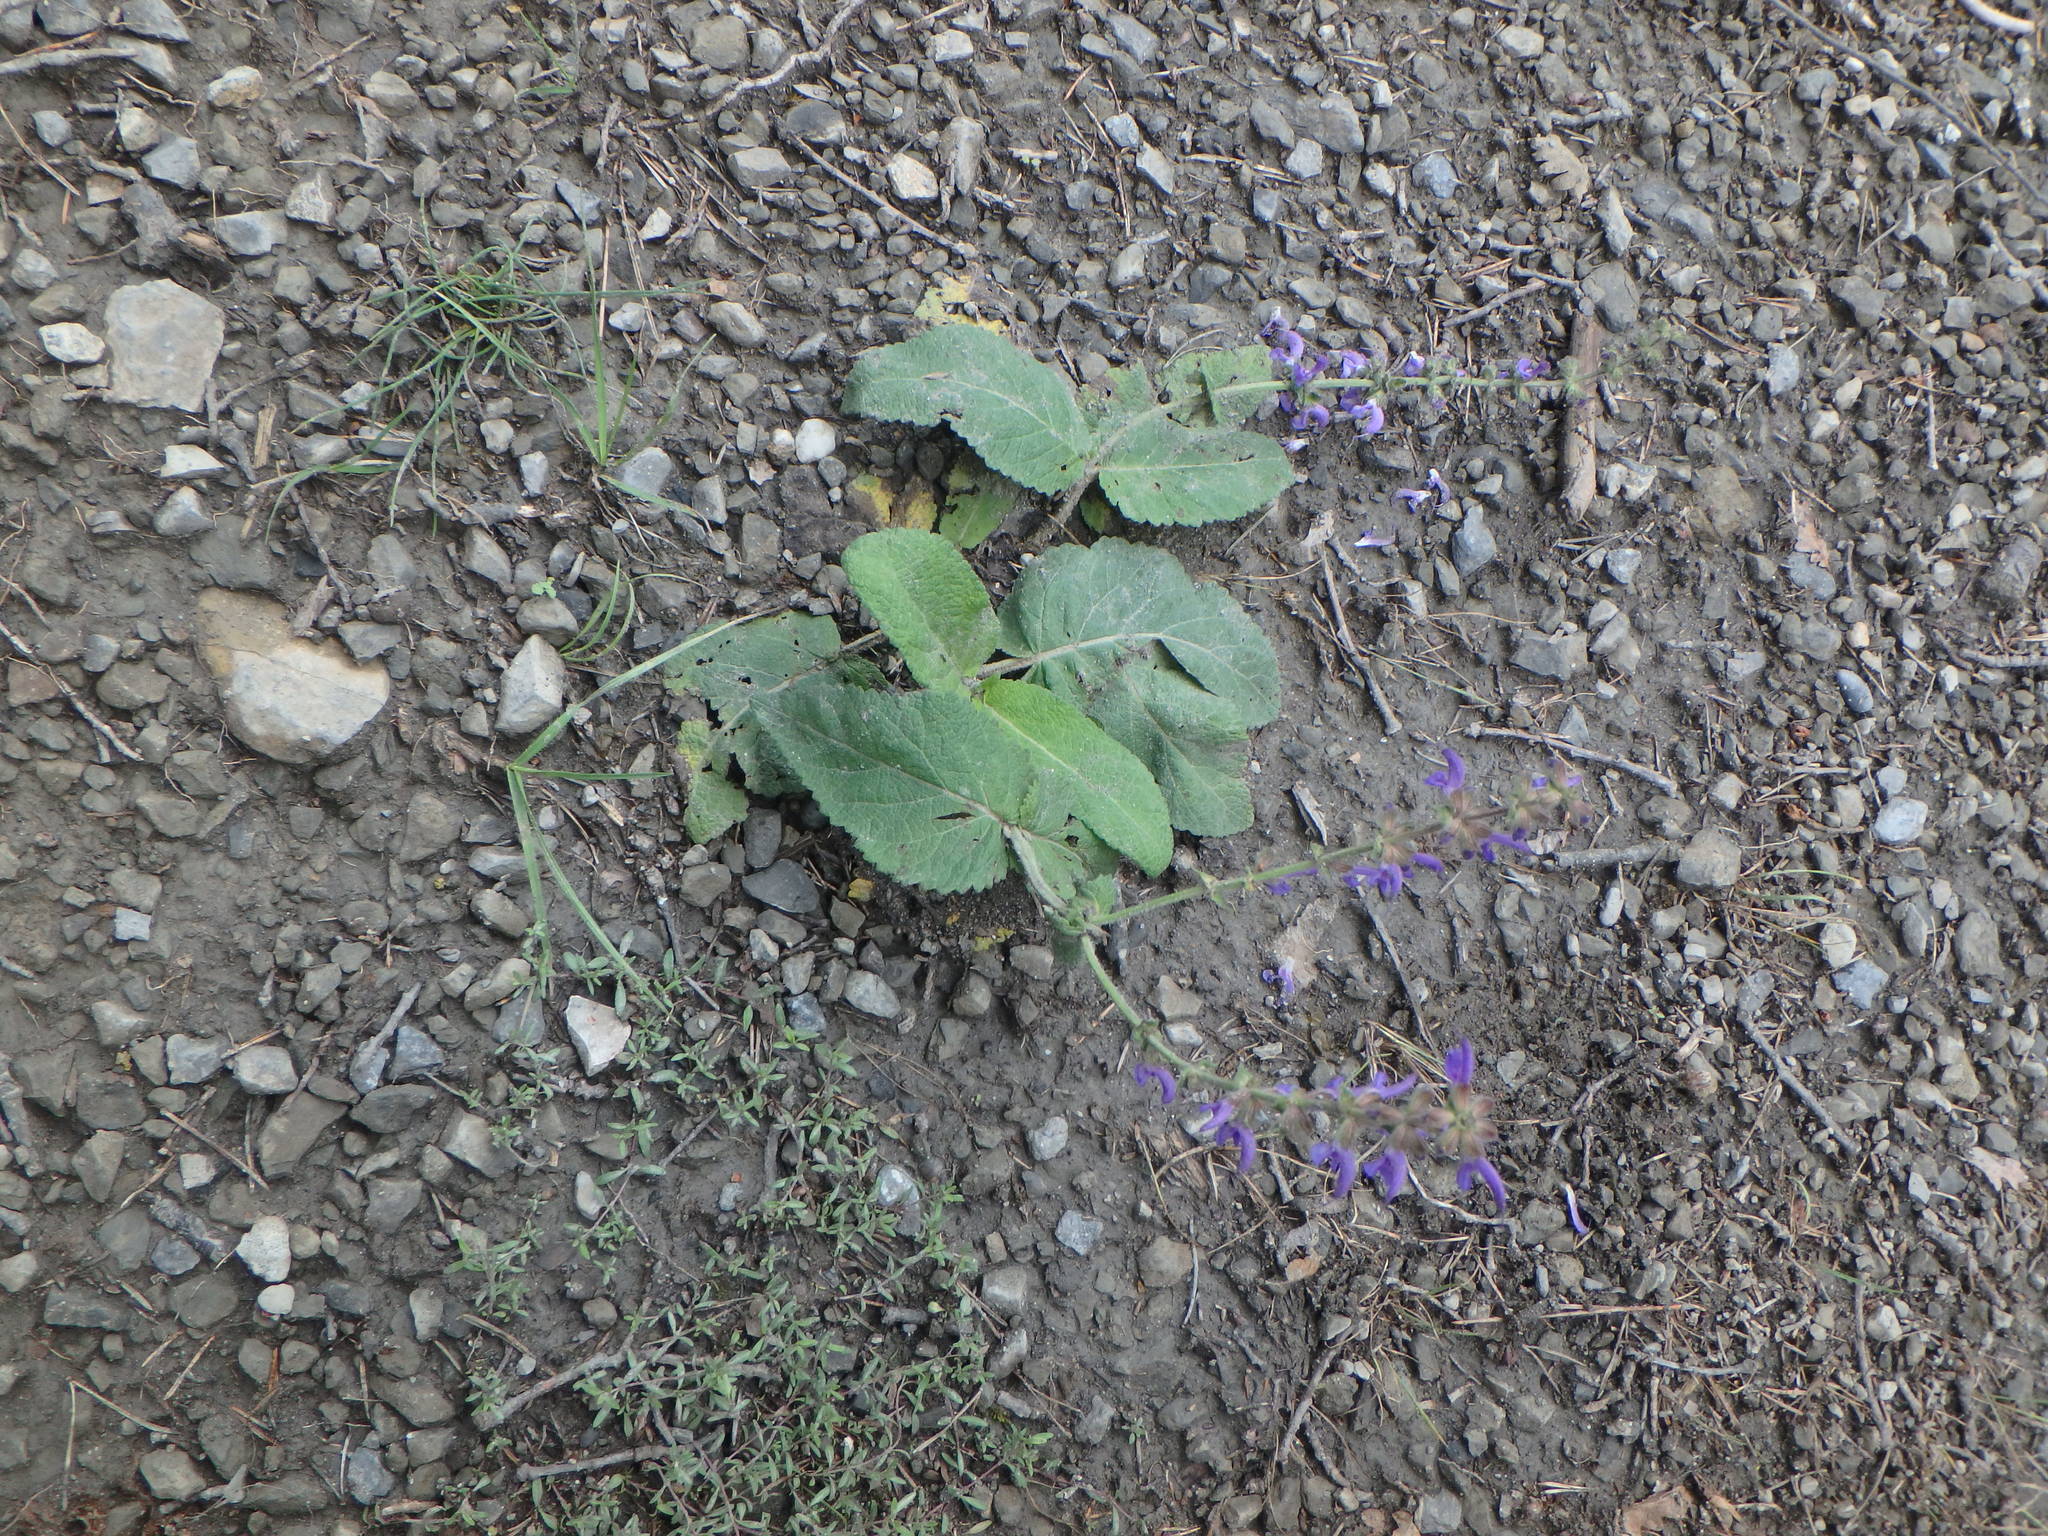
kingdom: Plantae
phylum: Tracheophyta
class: Magnoliopsida
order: Lamiales
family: Lamiaceae
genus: Salvia
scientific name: Salvia pratensis
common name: Meadow sage
